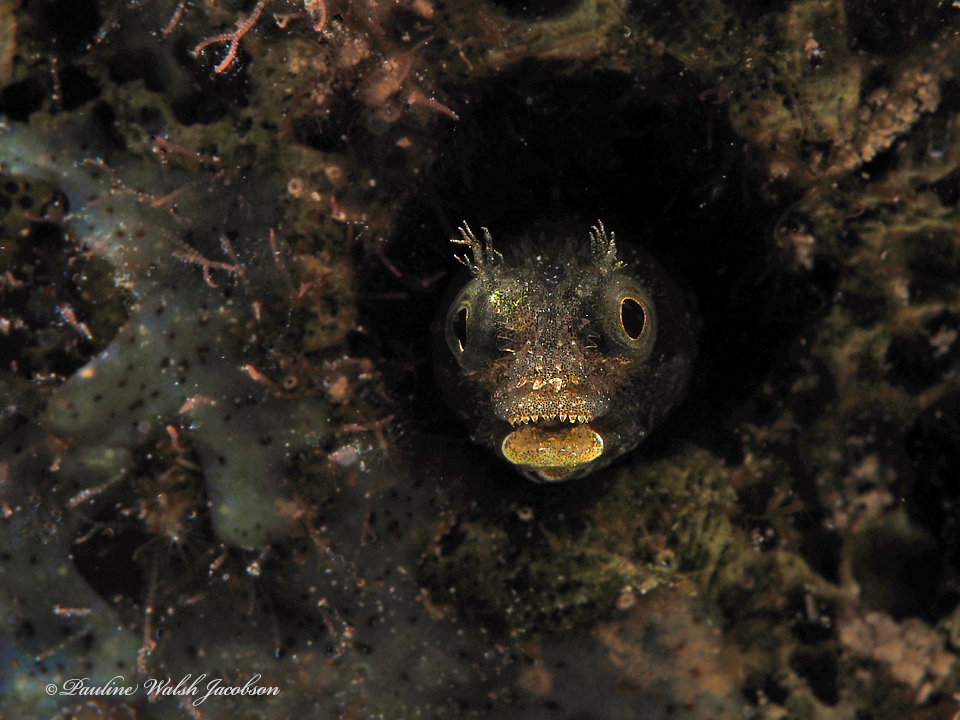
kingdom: Animalia
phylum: Chordata
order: Perciformes
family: Chaenopsidae
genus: Acanthemblemaria
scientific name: Acanthemblemaria spinosa
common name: Spinyhead blenny
